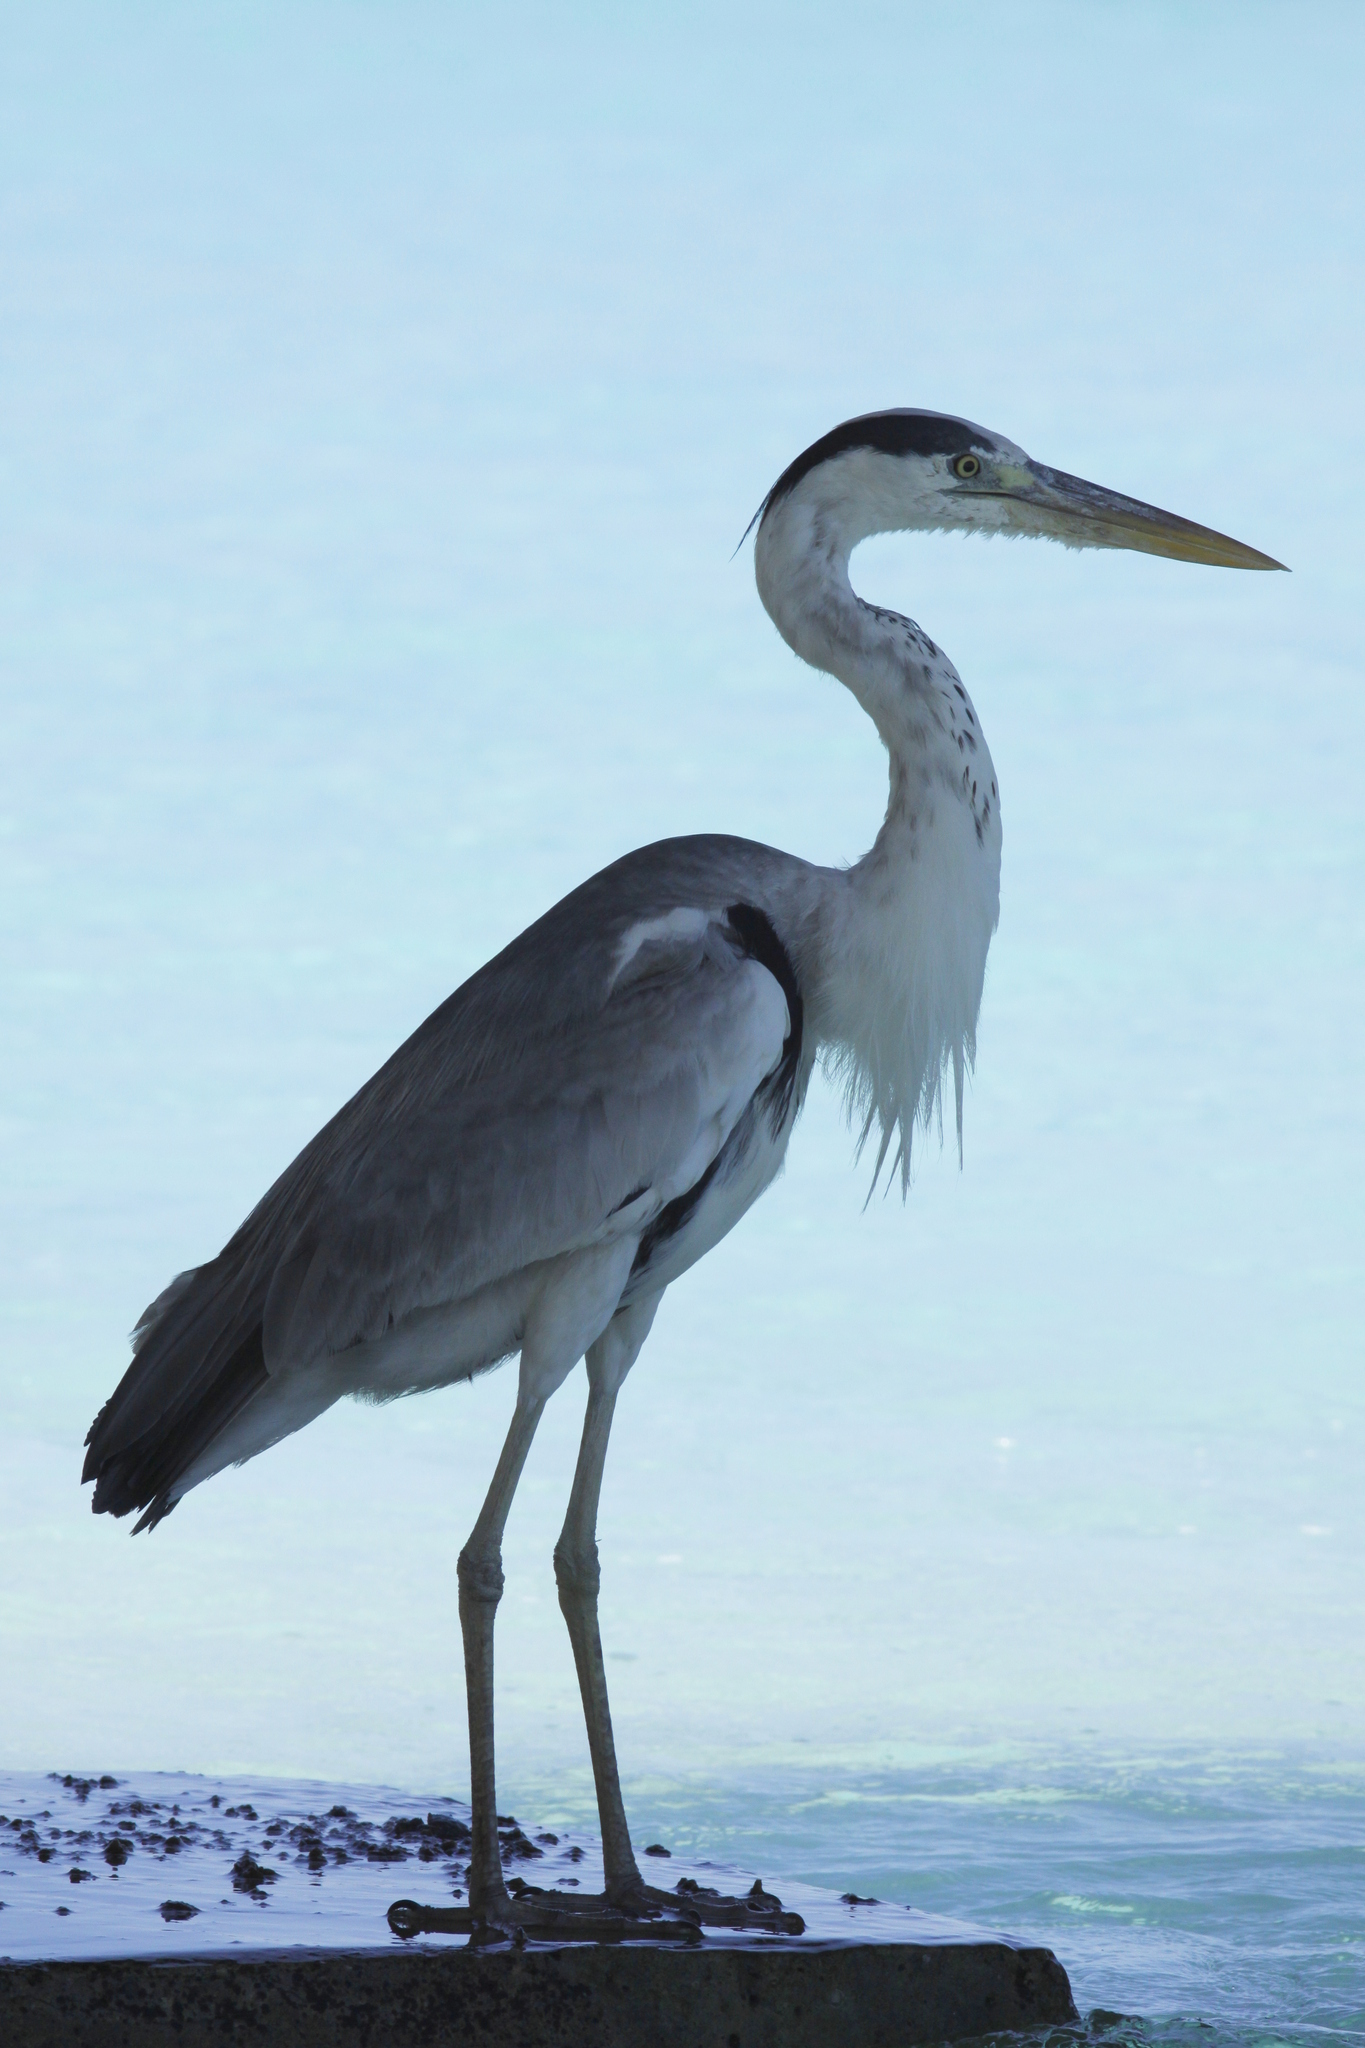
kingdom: Animalia
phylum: Chordata
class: Aves
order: Pelecaniformes
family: Ardeidae
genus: Ardea
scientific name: Ardea cinerea
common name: Grey heron
